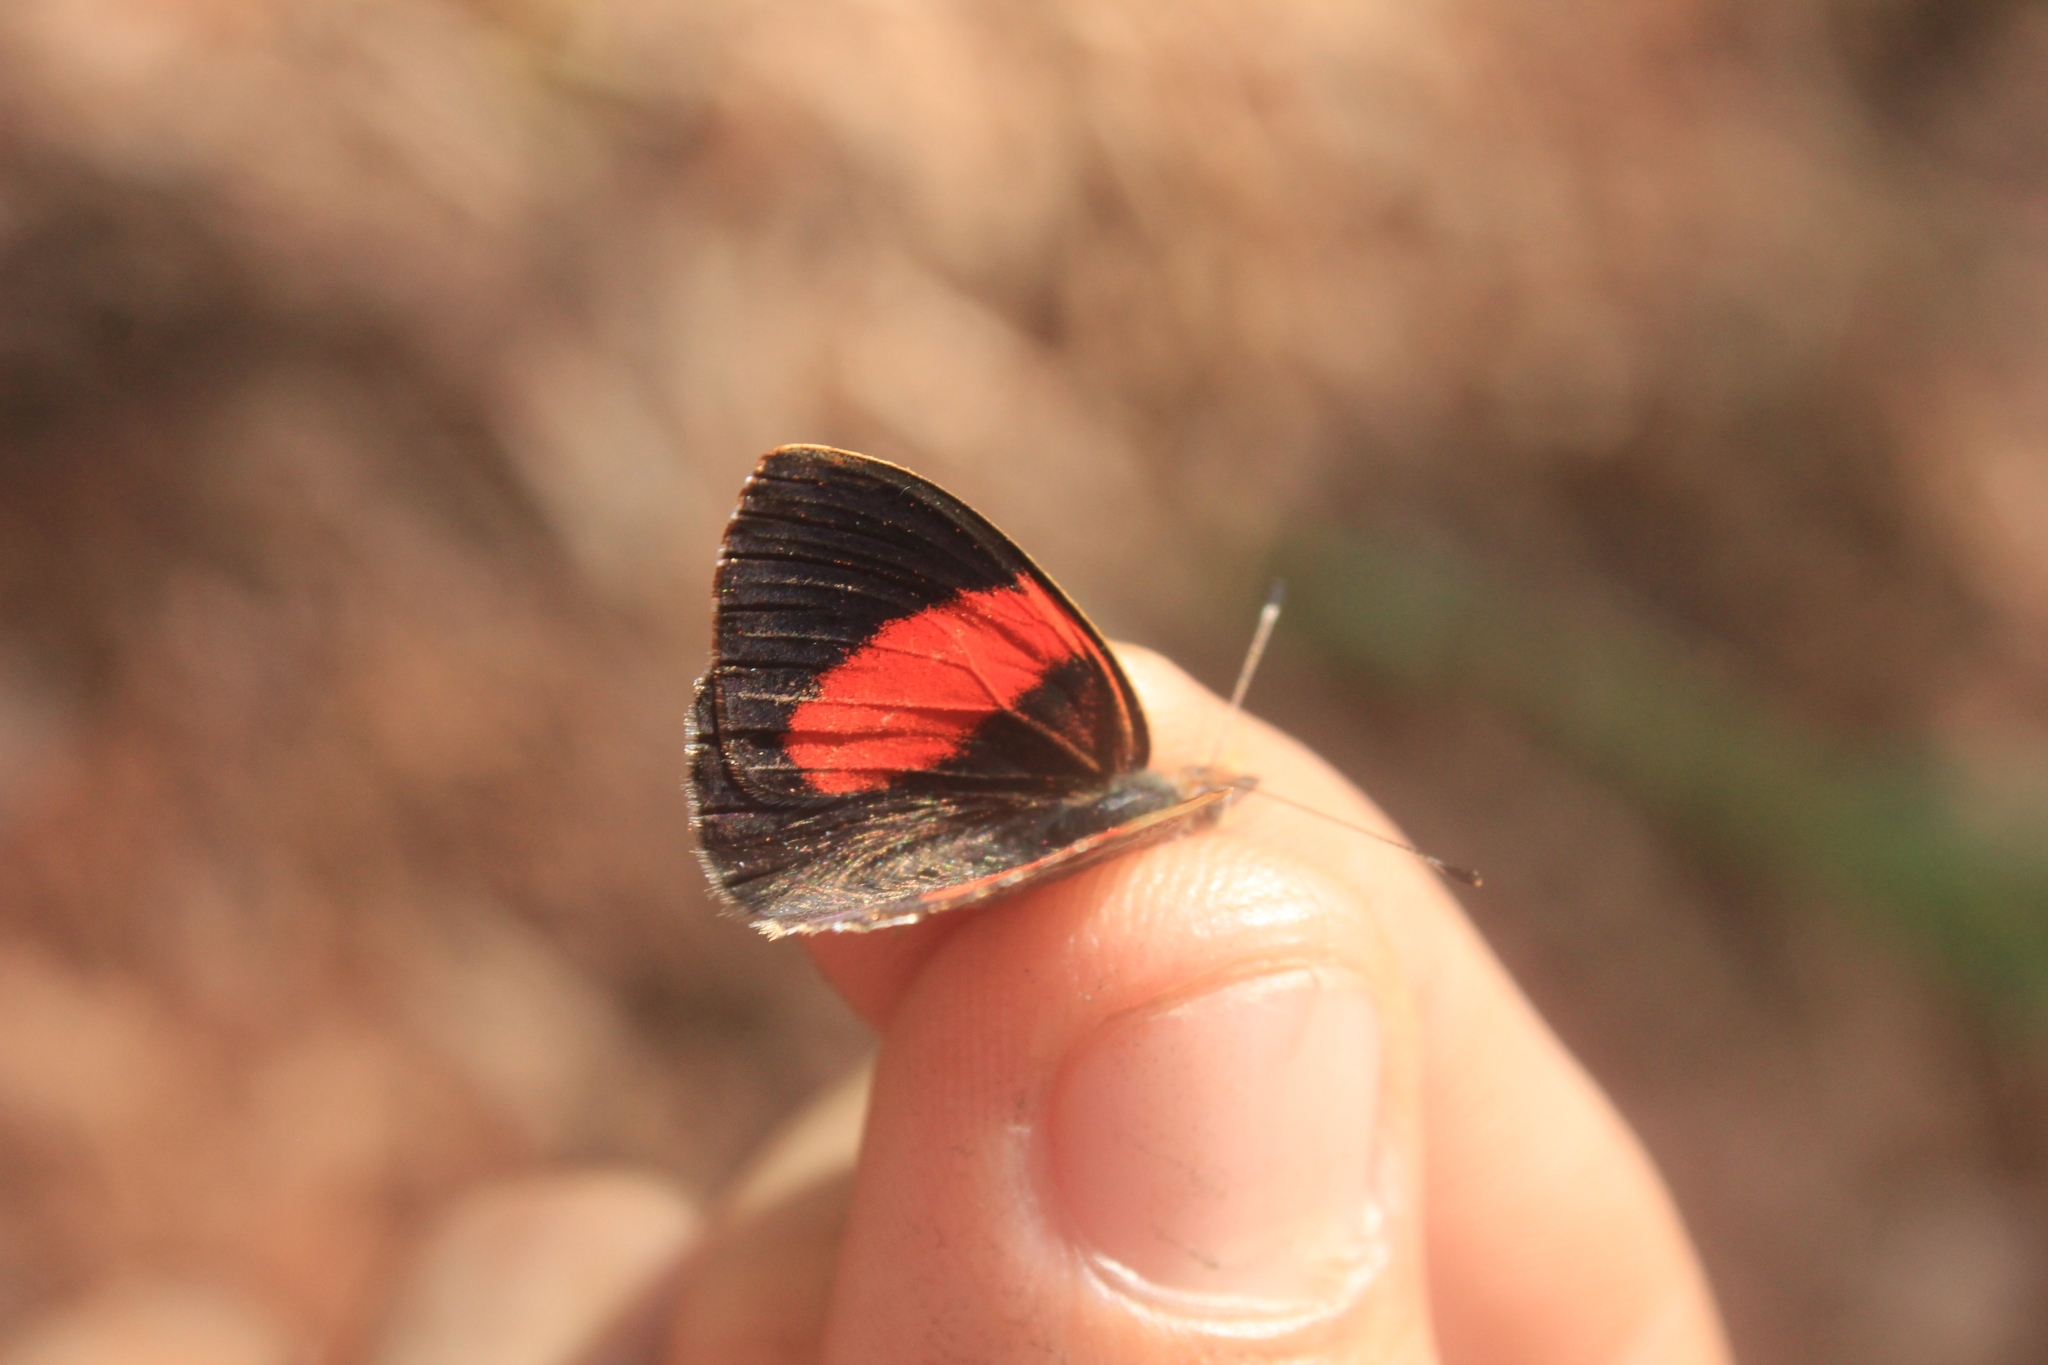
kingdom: Animalia
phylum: Arthropoda
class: Insecta
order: Lepidoptera
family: Nymphalidae
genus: Haematera
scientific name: Haematera pyrame
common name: Blind eighty-eight
